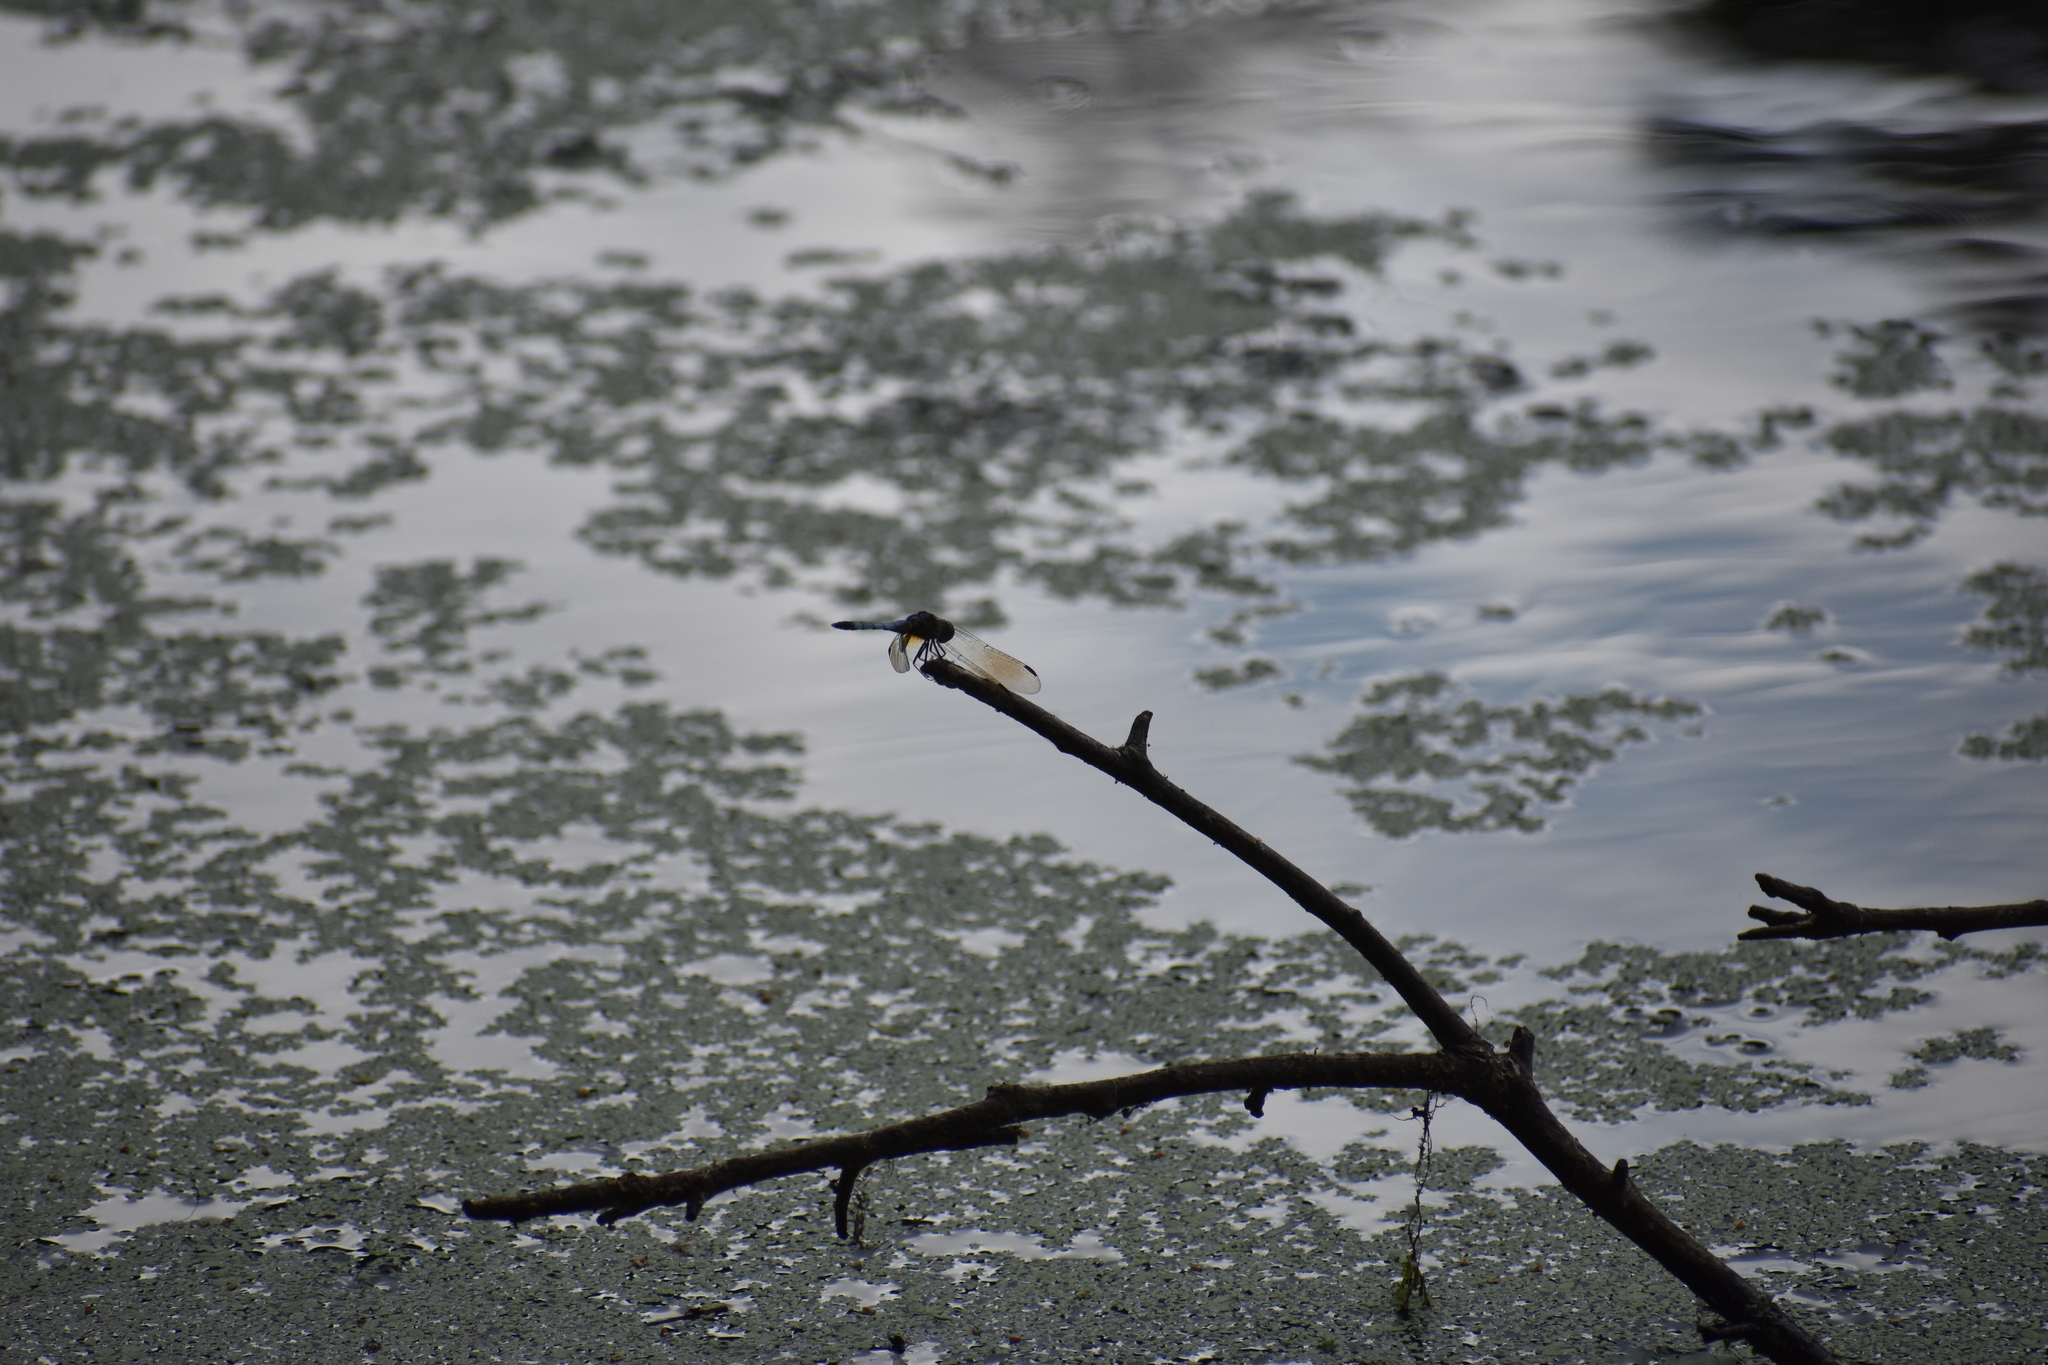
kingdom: Animalia
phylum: Arthropoda
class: Insecta
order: Odonata
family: Libellulidae
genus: Pachydiplax
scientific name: Pachydiplax longipennis
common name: Blue dasher
